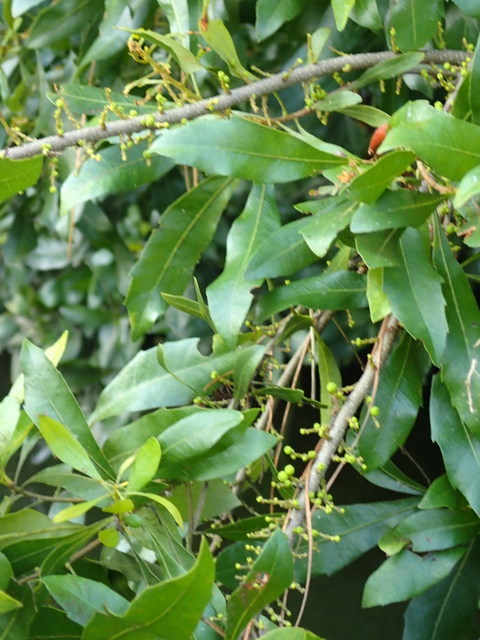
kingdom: Plantae
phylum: Tracheophyta
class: Magnoliopsida
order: Fagales
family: Myricaceae
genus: Morella
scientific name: Morella cerifera
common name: Wax myrtle
